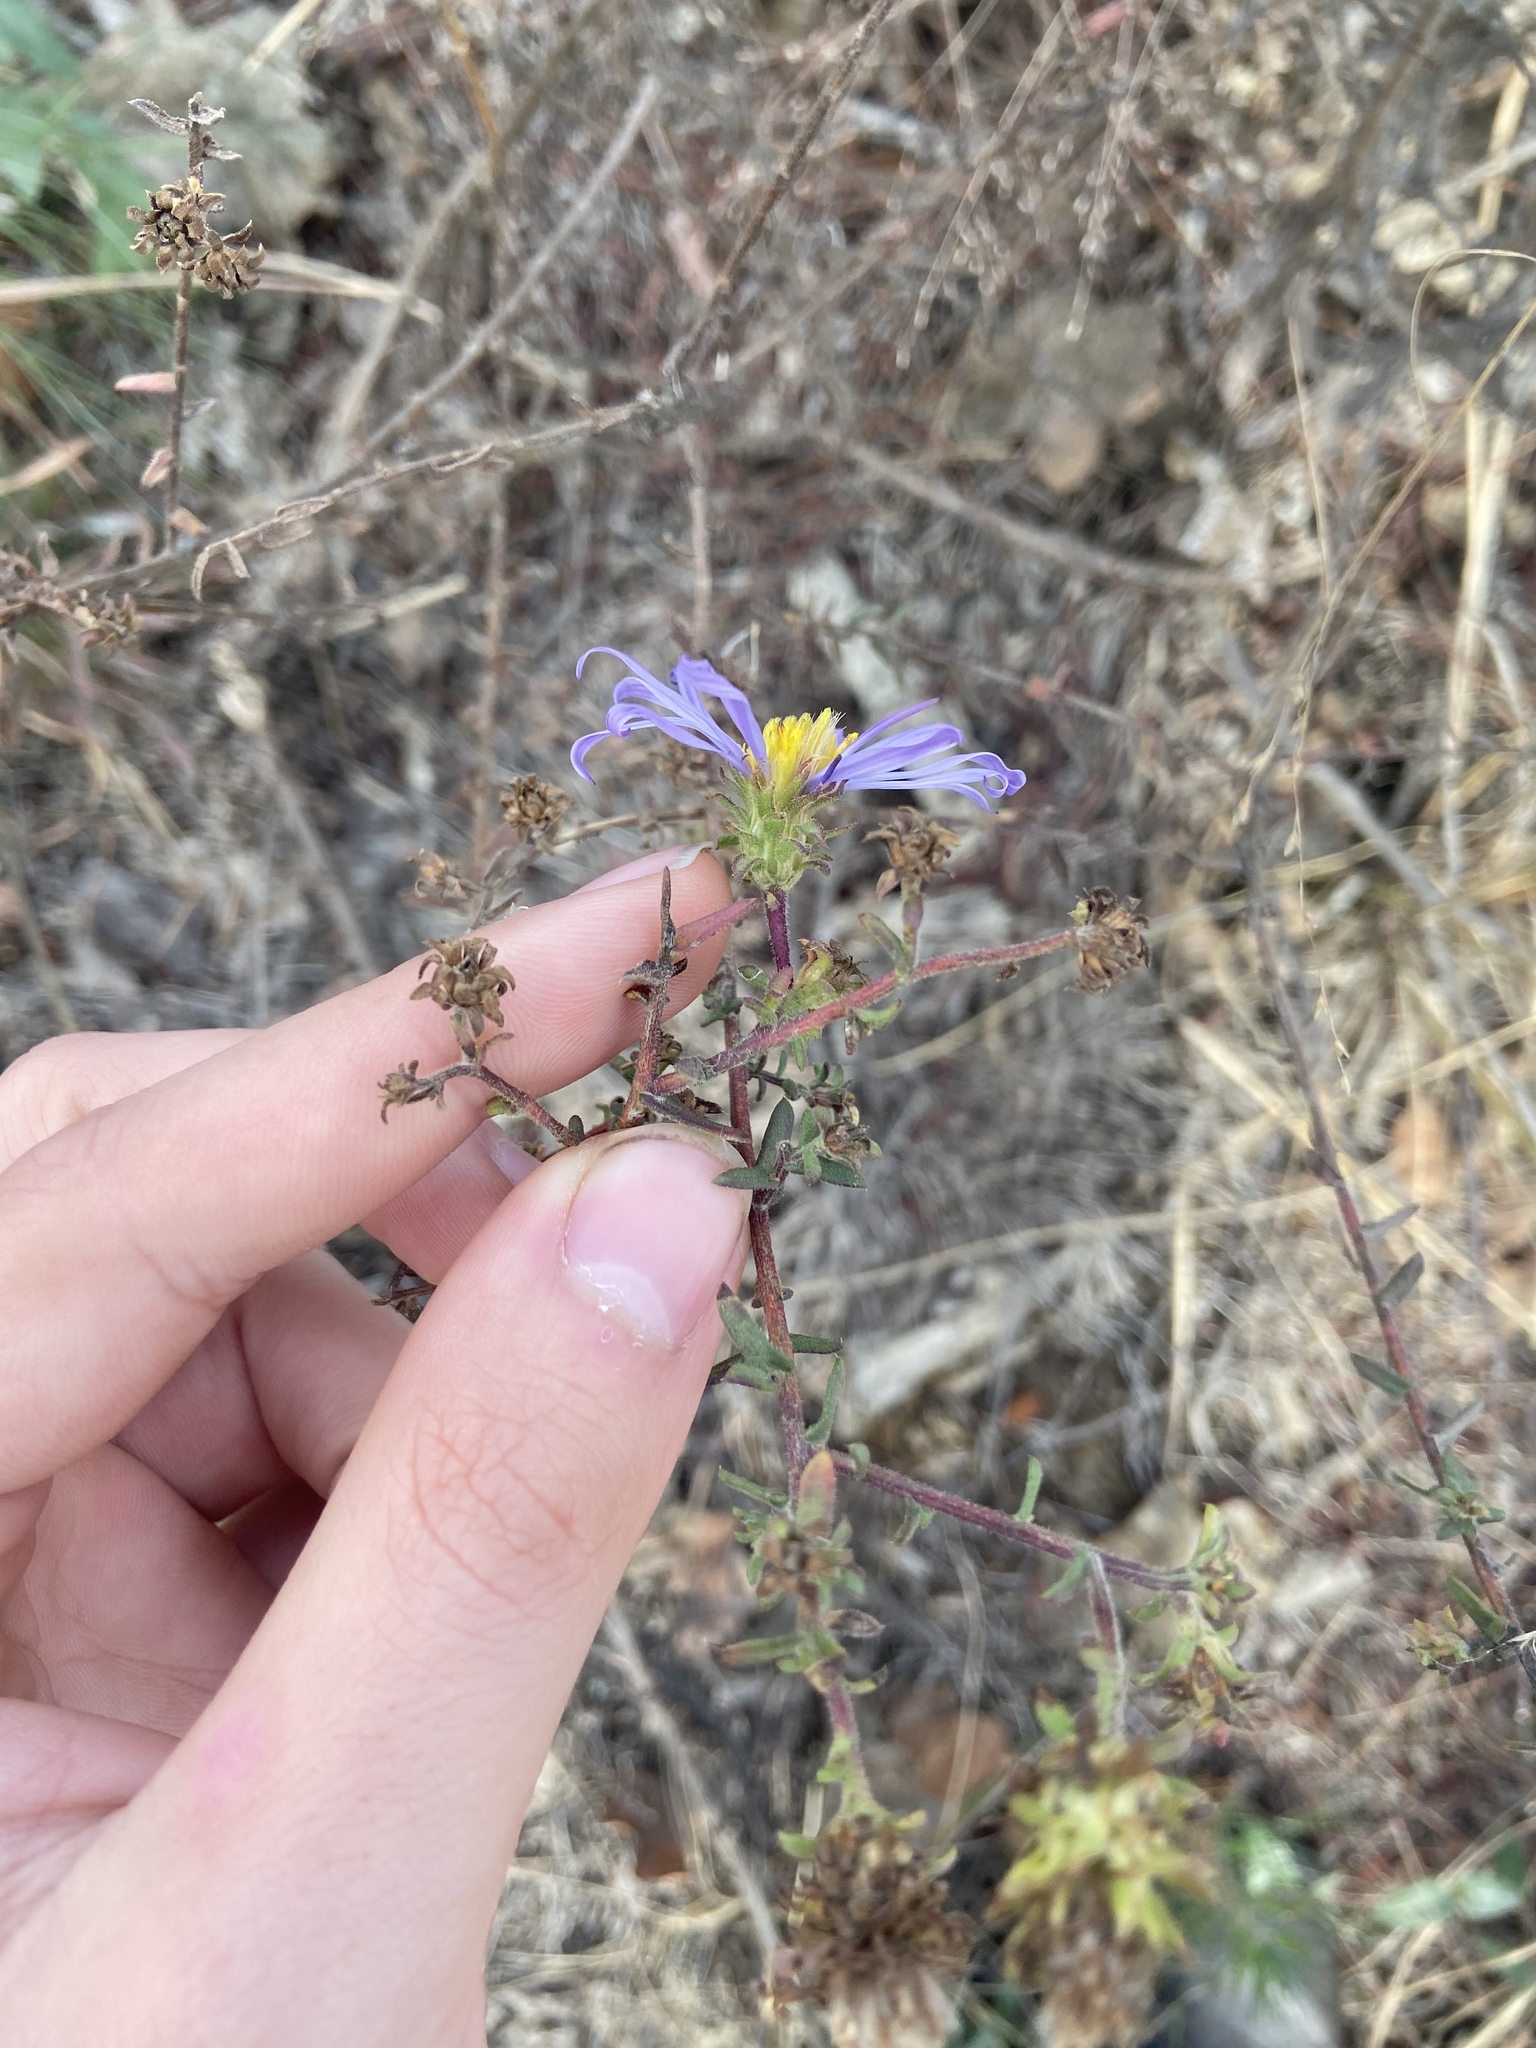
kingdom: Plantae
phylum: Tracheophyta
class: Magnoliopsida
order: Asterales
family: Asteraceae
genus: Symphyotrichum
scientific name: Symphyotrichum grandiflorum
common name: Big-head aster
